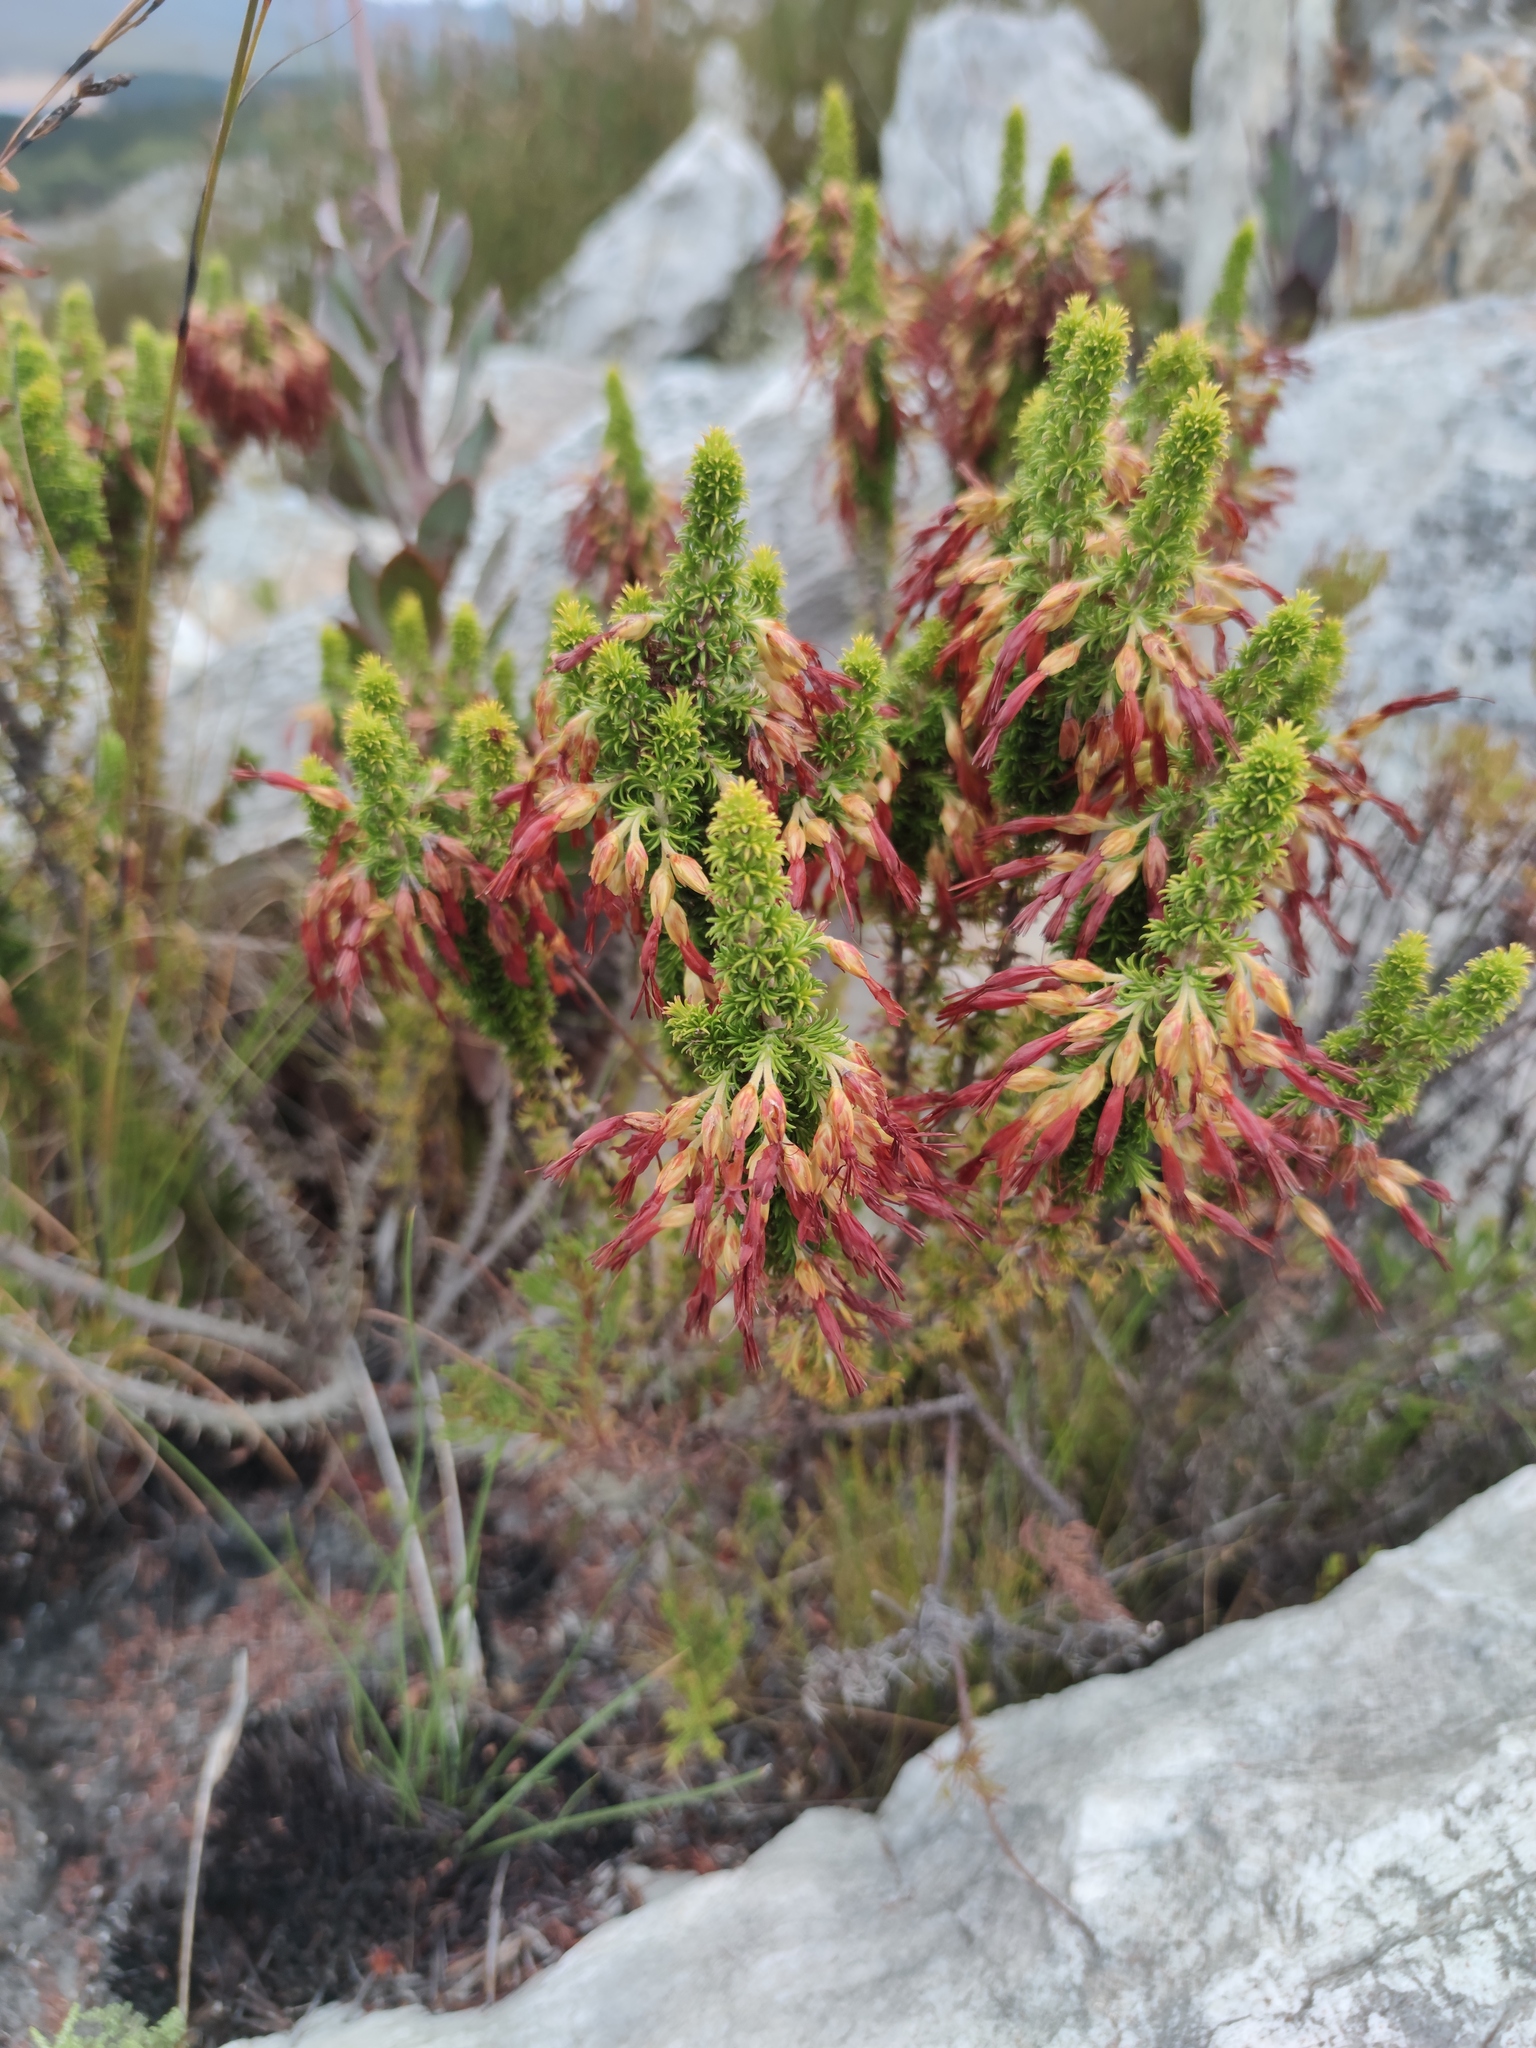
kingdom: Plantae
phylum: Tracheophyta
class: Magnoliopsida
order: Ericales
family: Ericaceae
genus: Erica
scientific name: Erica coccinea
